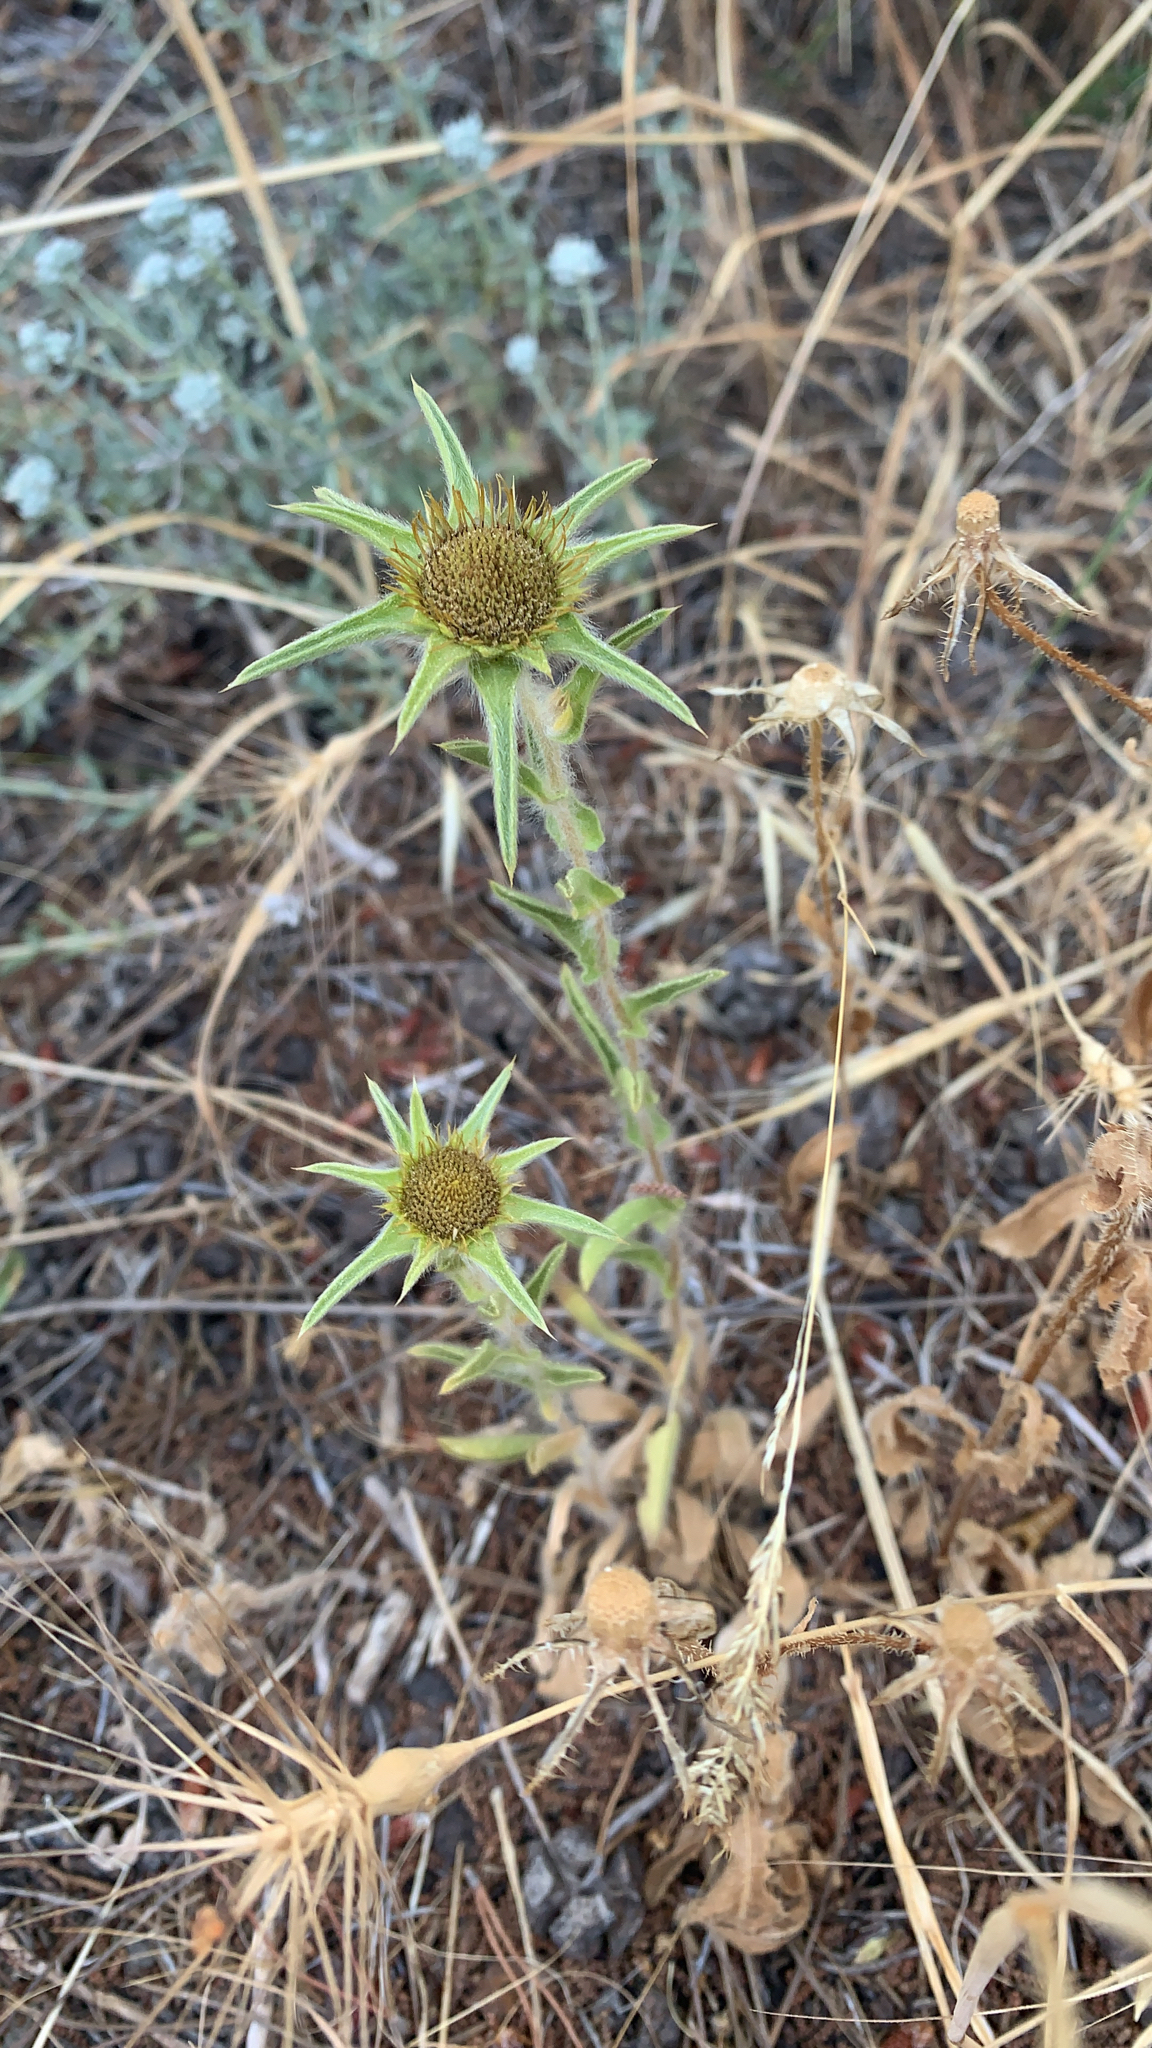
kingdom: Plantae
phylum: Tracheophyta
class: Magnoliopsida
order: Asterales
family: Asteraceae
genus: Pallenis
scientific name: Pallenis spinosa
